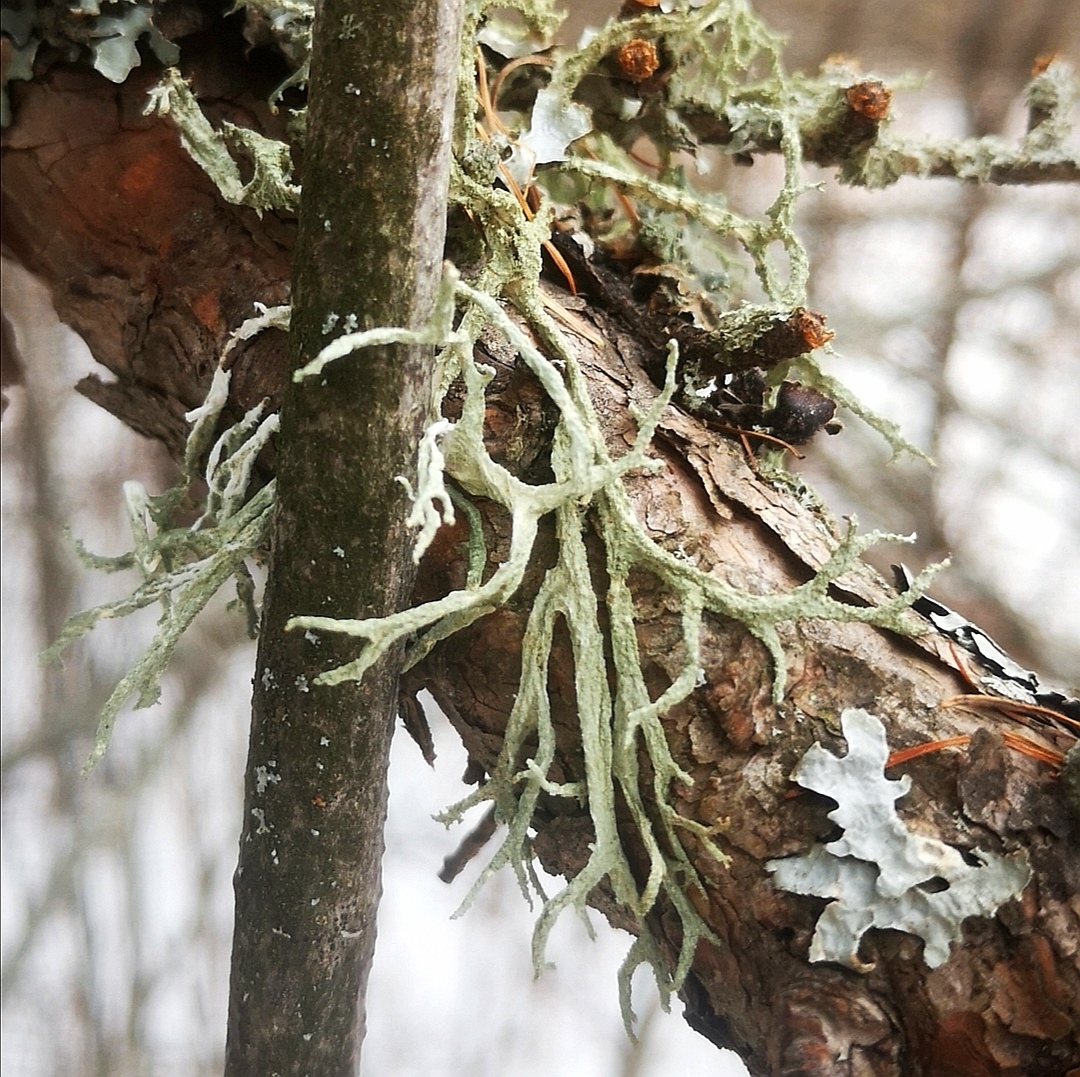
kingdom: Fungi
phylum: Ascomycota
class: Lecanoromycetes
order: Lecanorales
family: Parmeliaceae
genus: Evernia
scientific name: Evernia mesomorpha
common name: Boreal oak moss lichen
